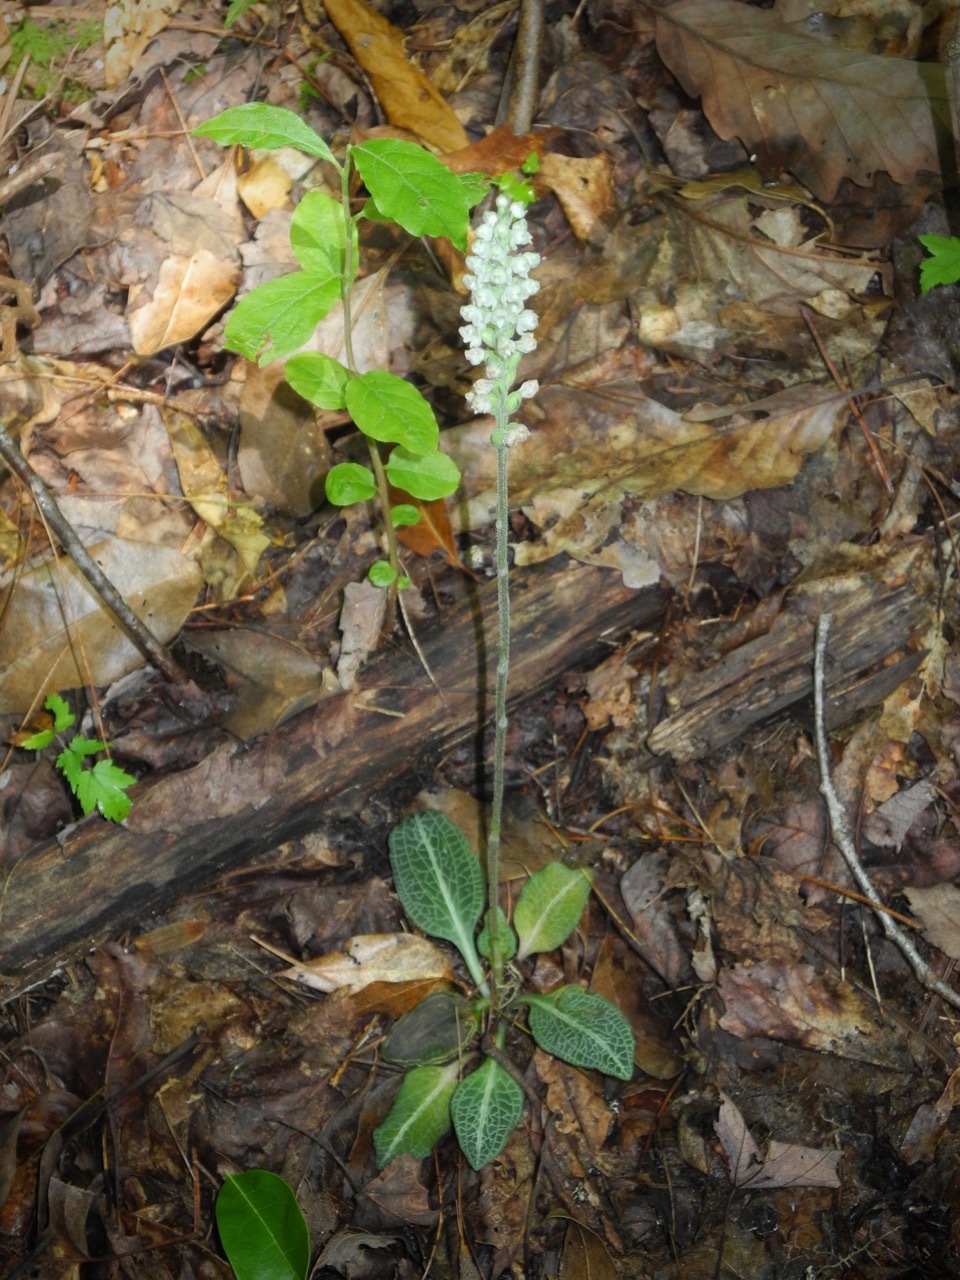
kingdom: Plantae
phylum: Tracheophyta
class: Liliopsida
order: Asparagales
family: Orchidaceae
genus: Goodyera
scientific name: Goodyera pubescens
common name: Downy rattlesnake-plantain
